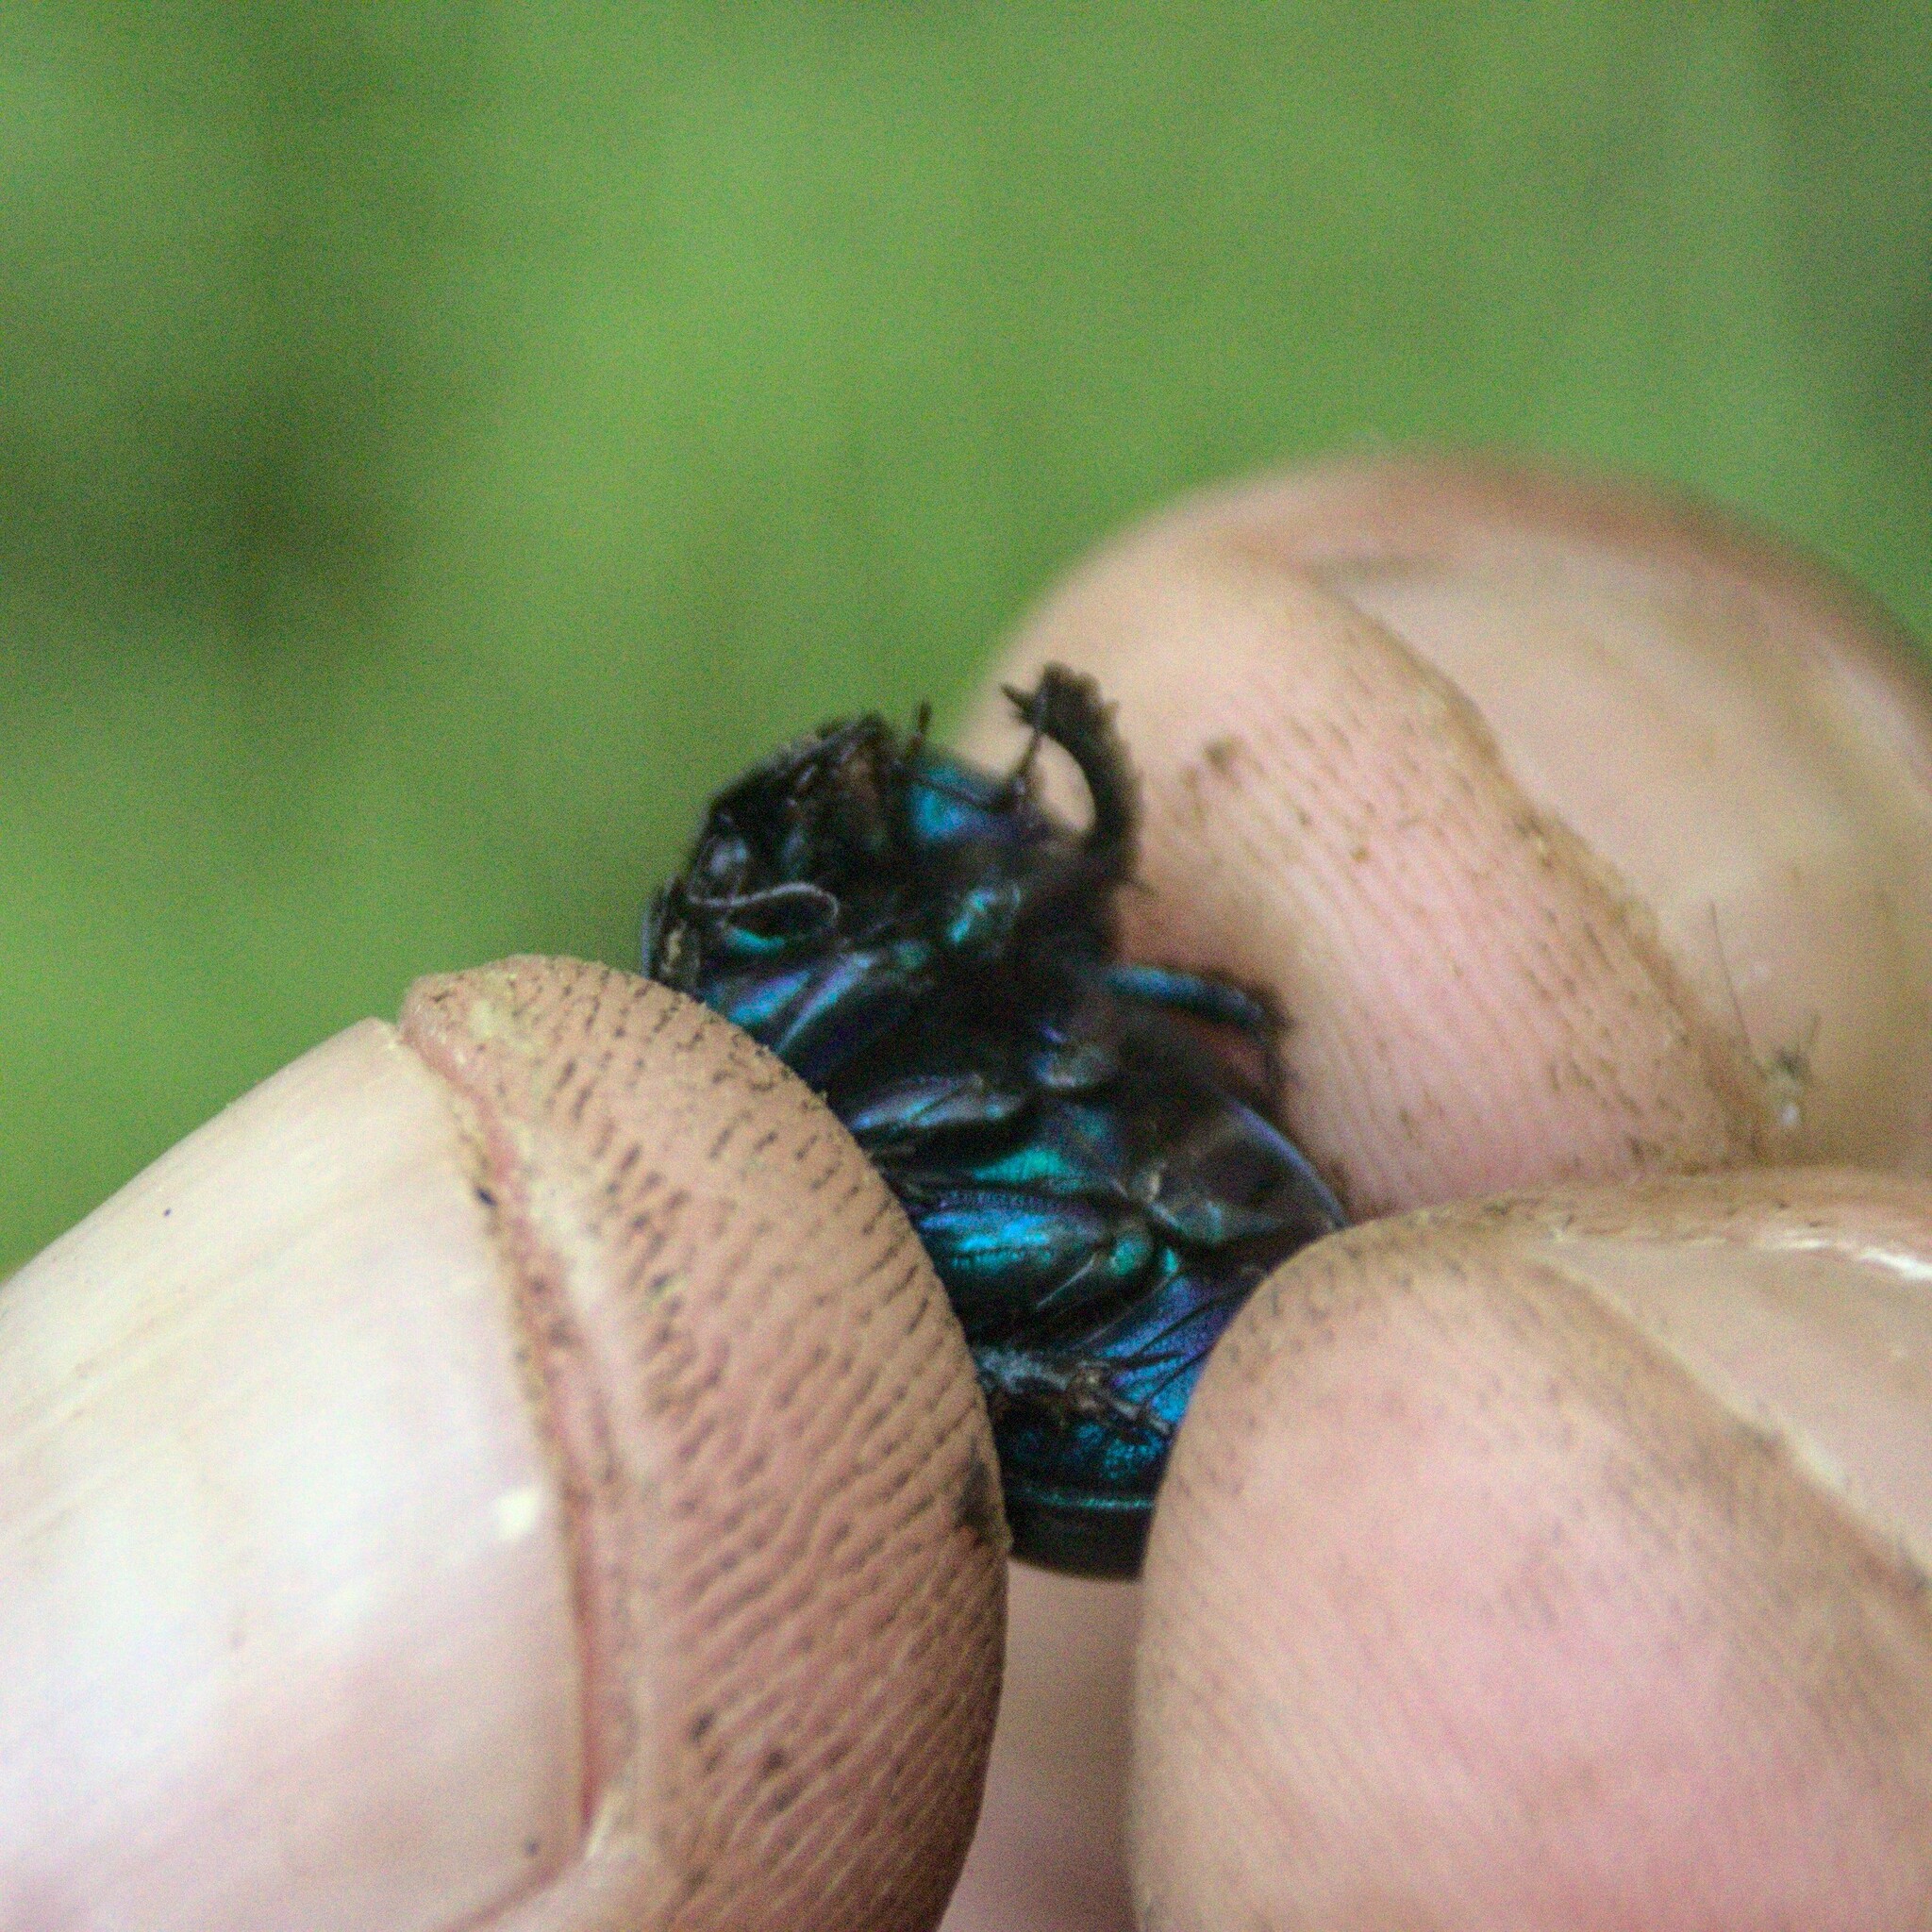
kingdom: Animalia
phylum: Arthropoda
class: Insecta
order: Coleoptera
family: Geotrupidae
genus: Anoplotrupes
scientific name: Anoplotrupes stercorosus
